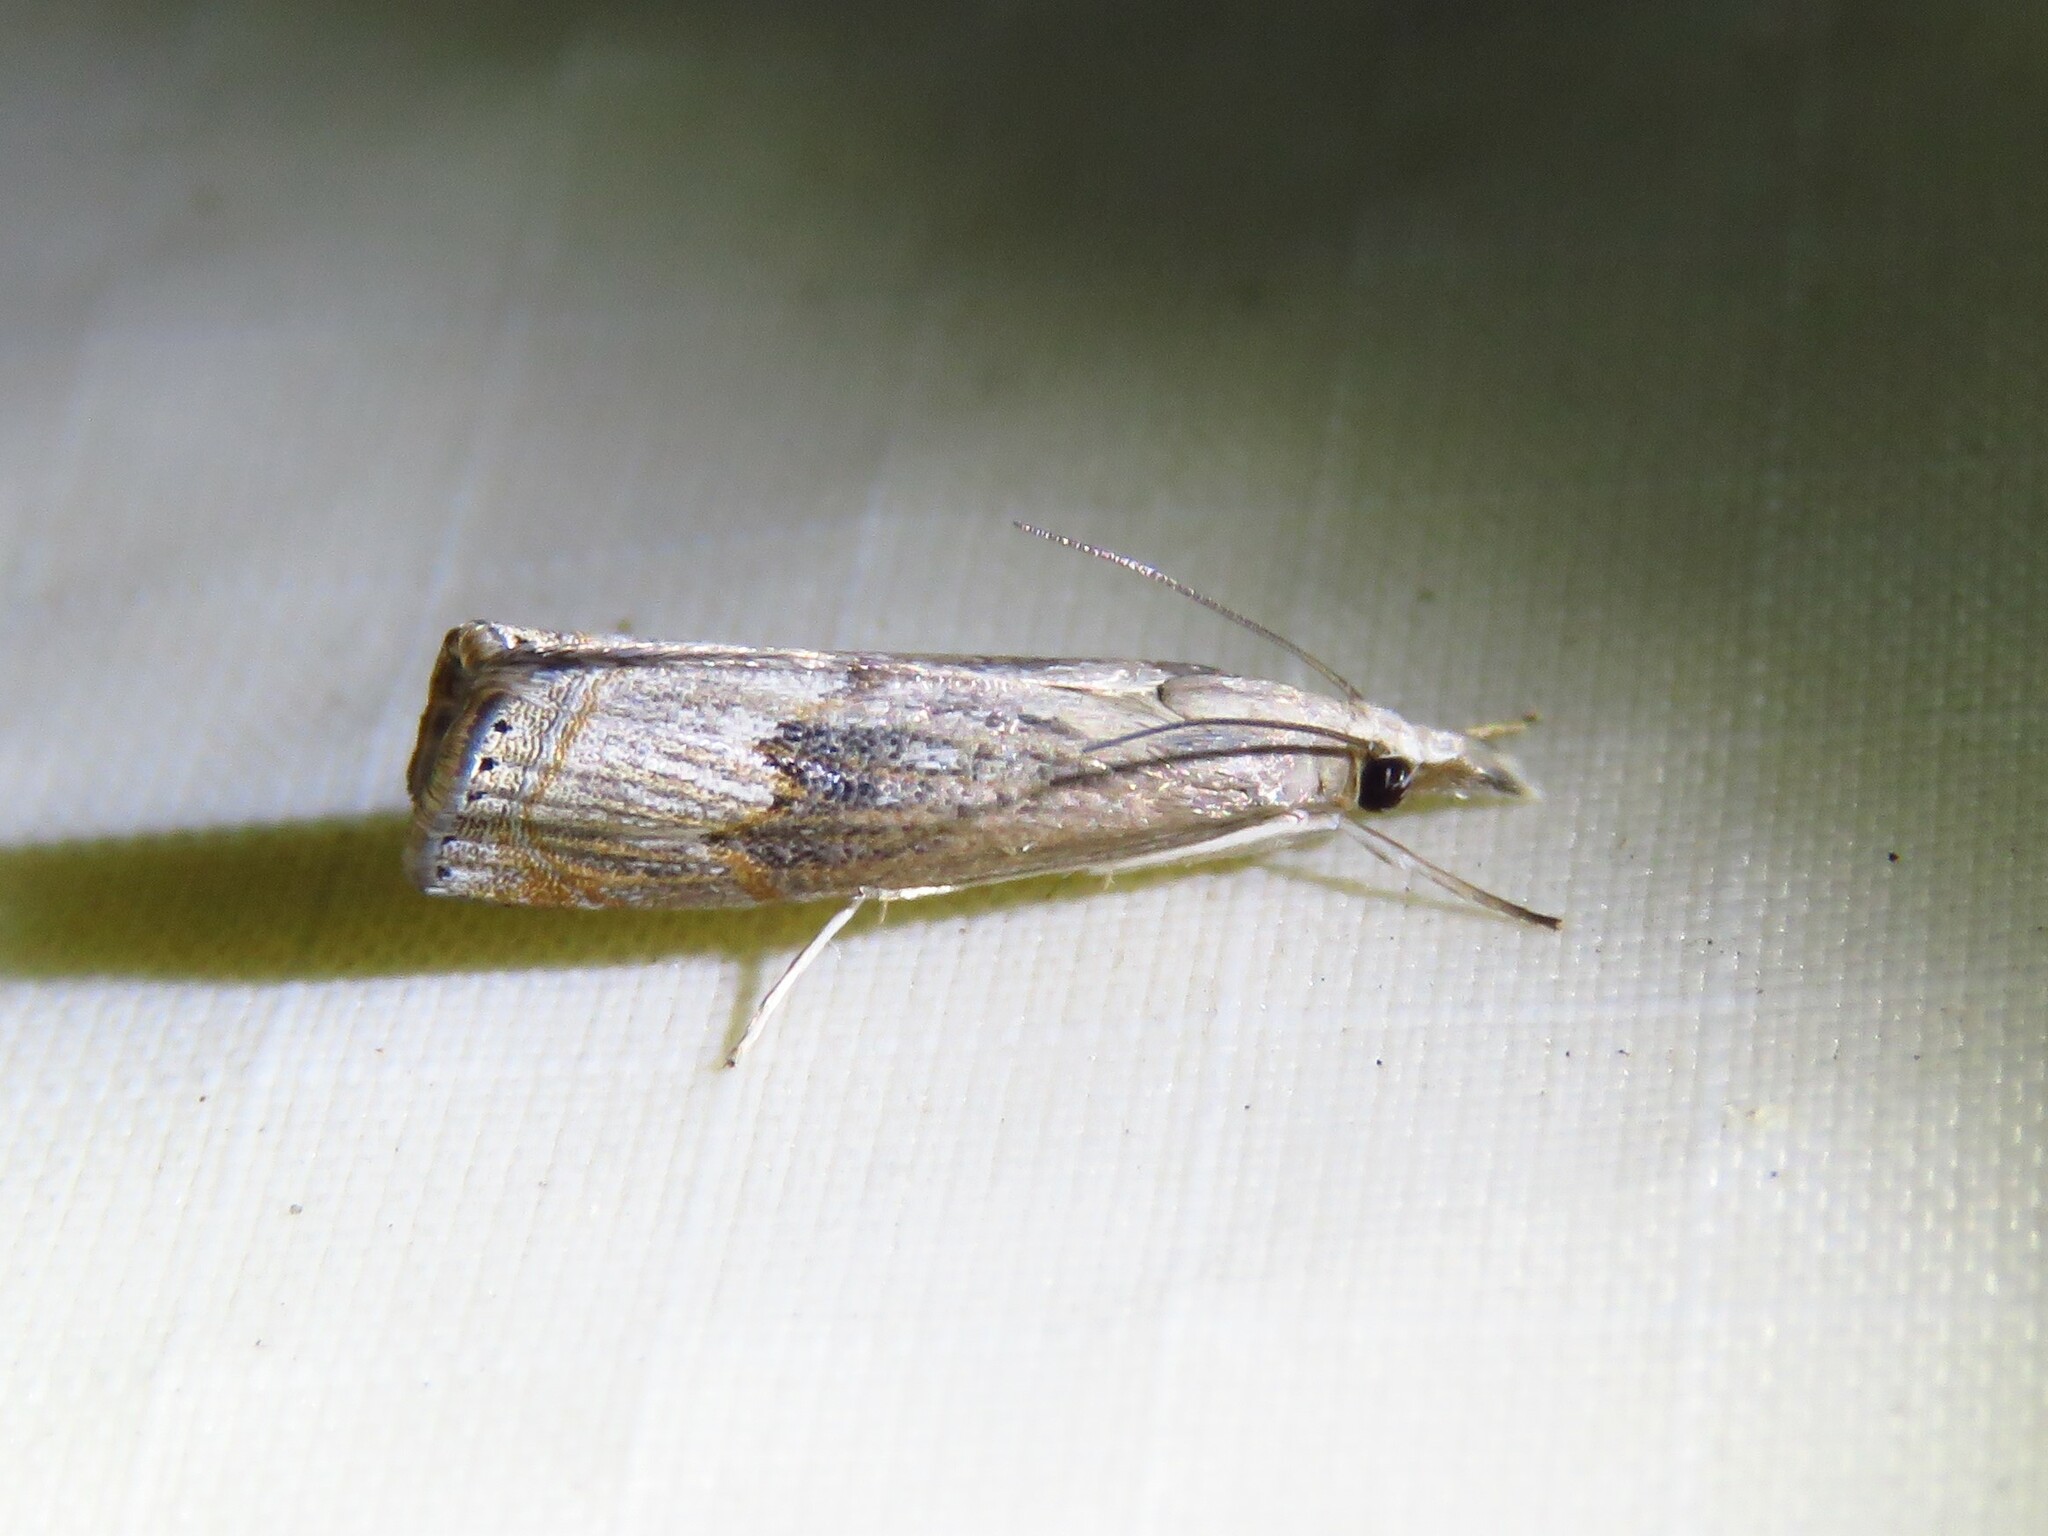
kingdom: Animalia
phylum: Arthropoda
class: Insecta
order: Lepidoptera
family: Crambidae
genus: Parapediasia
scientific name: Parapediasia teterellus
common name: Bluegrass webworm moth
